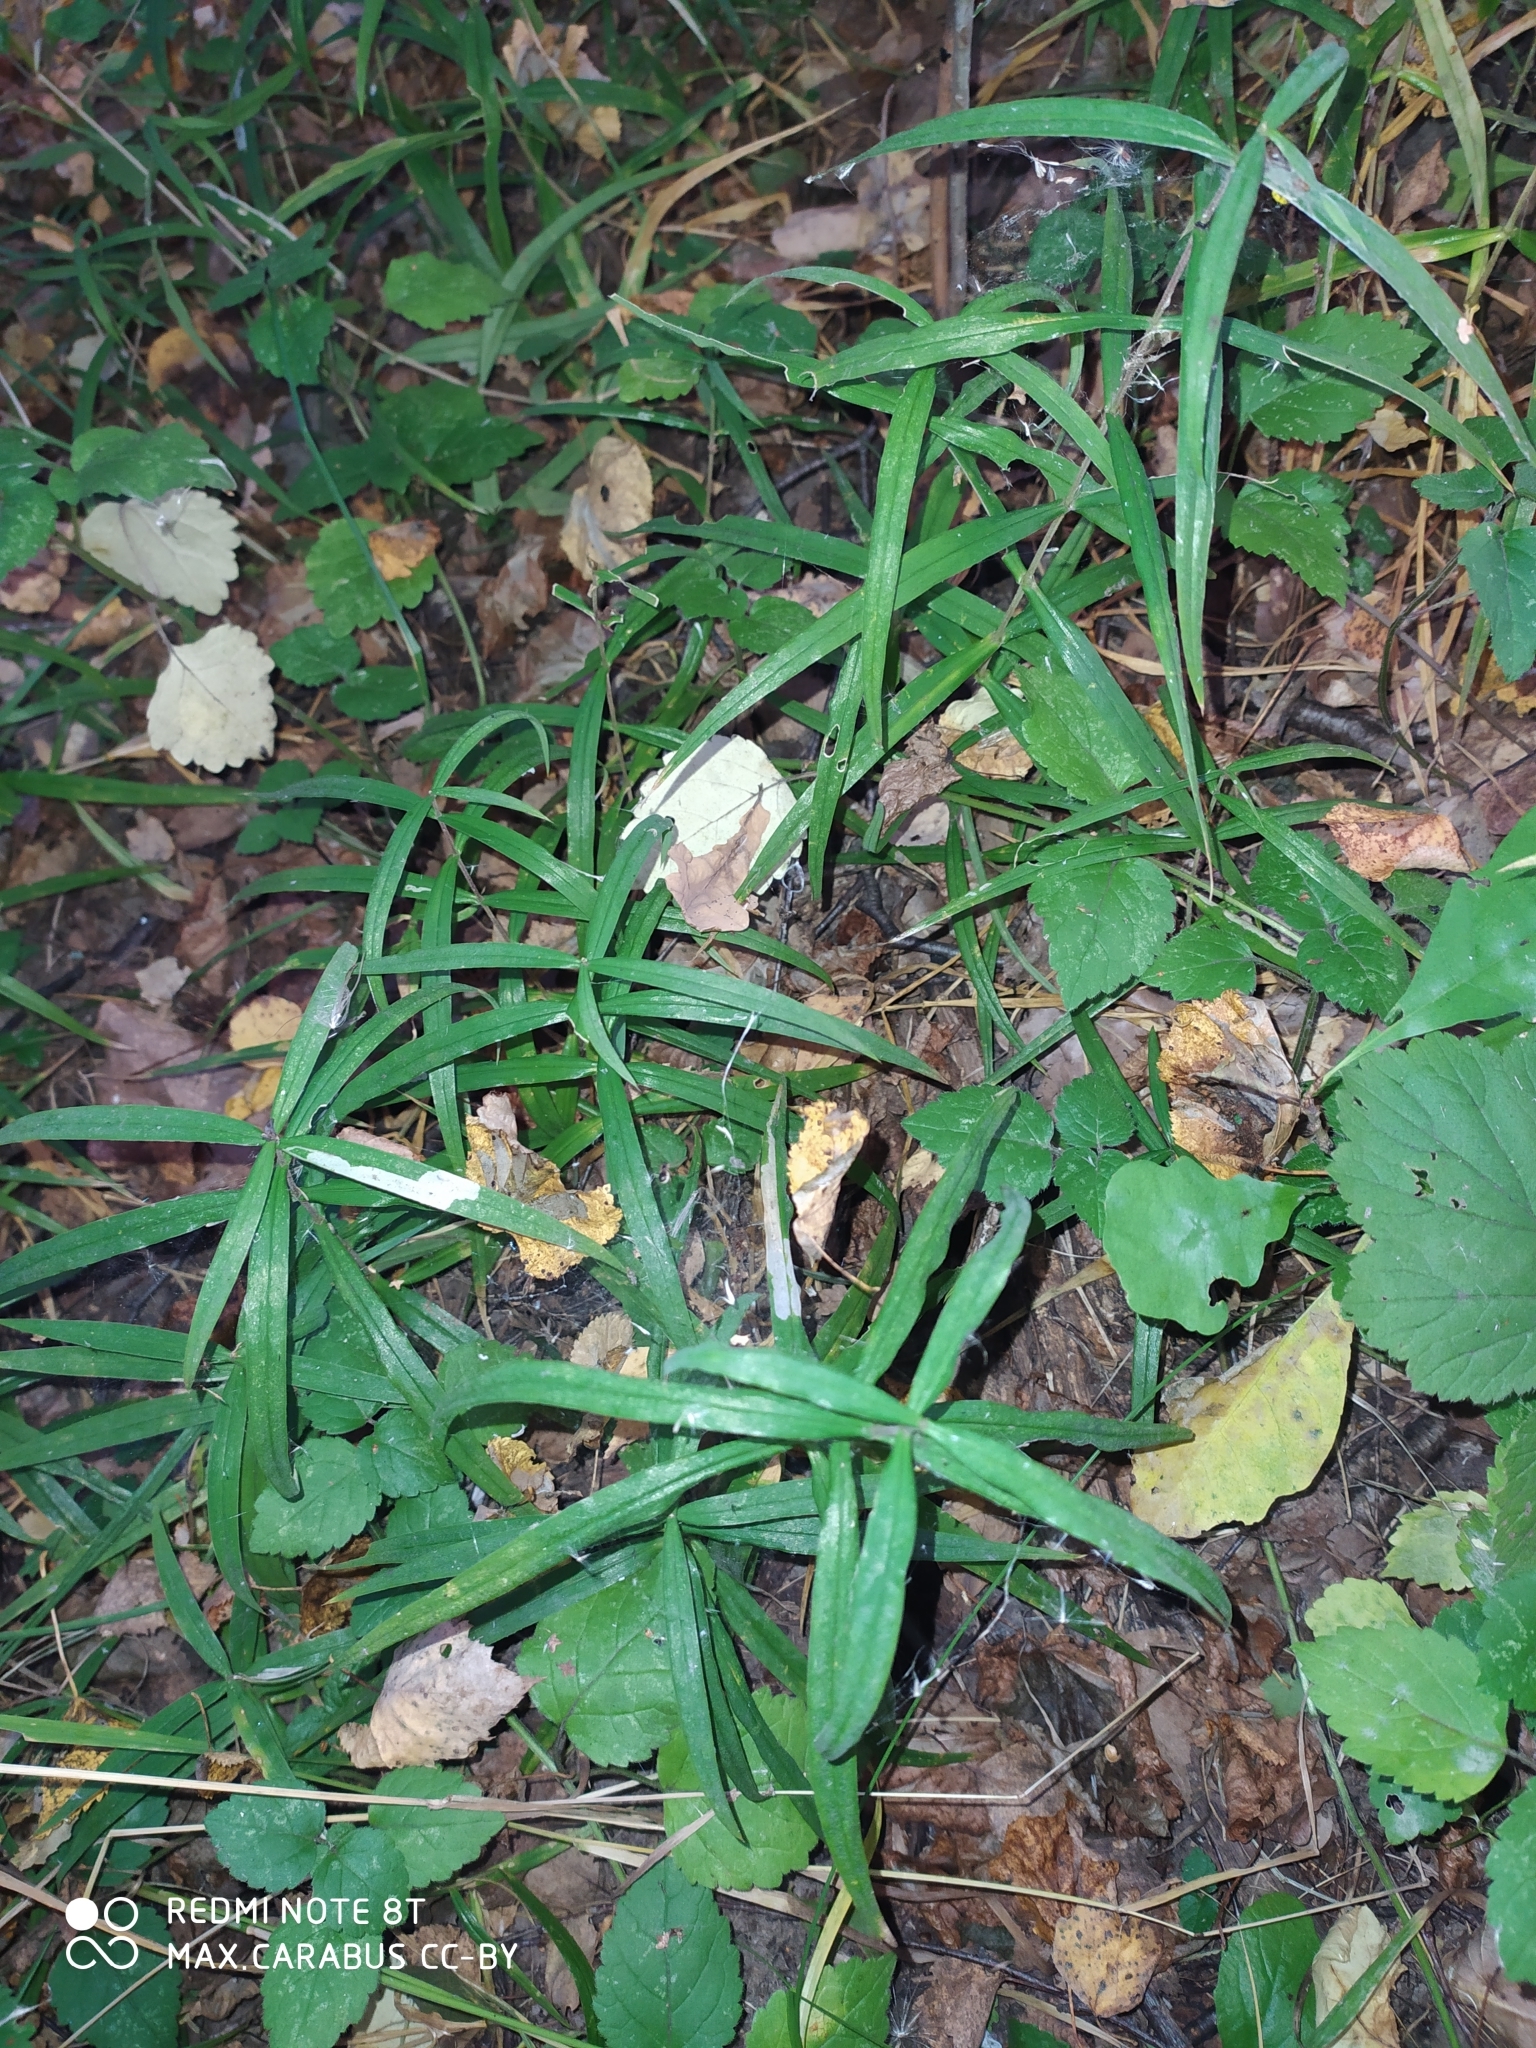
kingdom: Plantae
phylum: Tracheophyta
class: Magnoliopsida
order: Caryophyllales
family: Caryophyllaceae
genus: Rabelera
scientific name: Rabelera holostea
